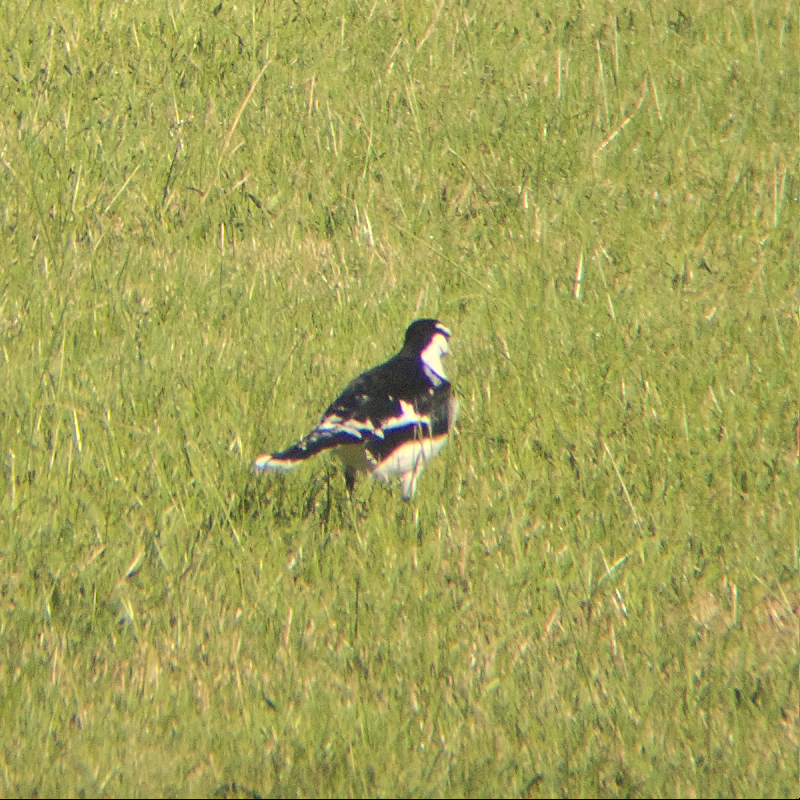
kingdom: Animalia
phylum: Chordata
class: Aves
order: Passeriformes
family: Monarchidae
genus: Grallina
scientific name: Grallina cyanoleuca
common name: Magpie-lark
